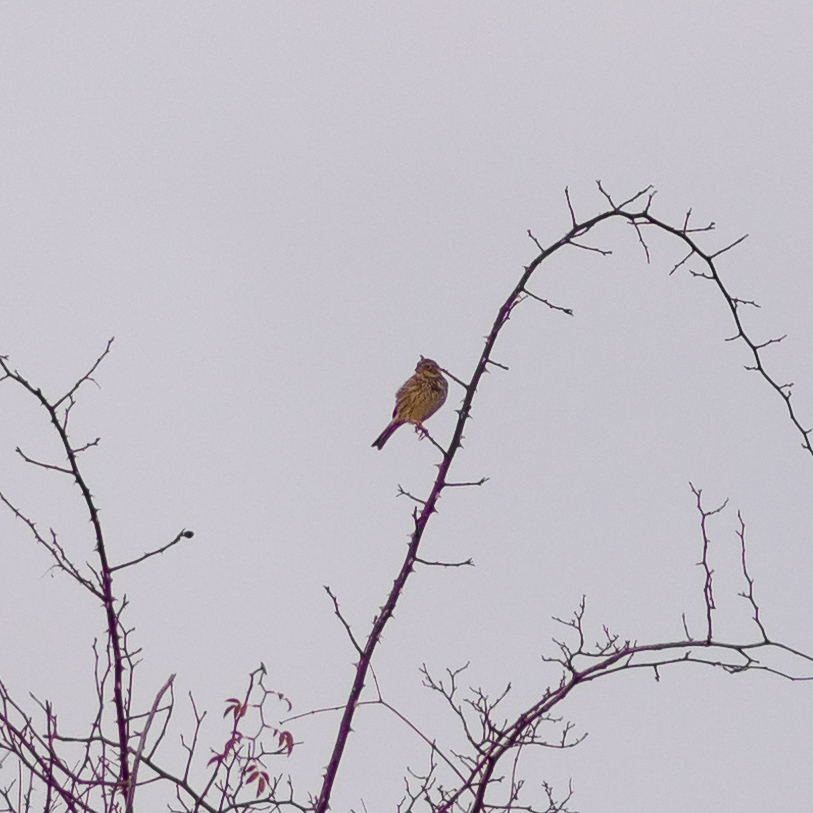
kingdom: Animalia
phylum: Chordata
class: Aves
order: Passeriformes
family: Emberizidae
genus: Emberiza
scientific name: Emberiza calandra
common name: Corn bunting
